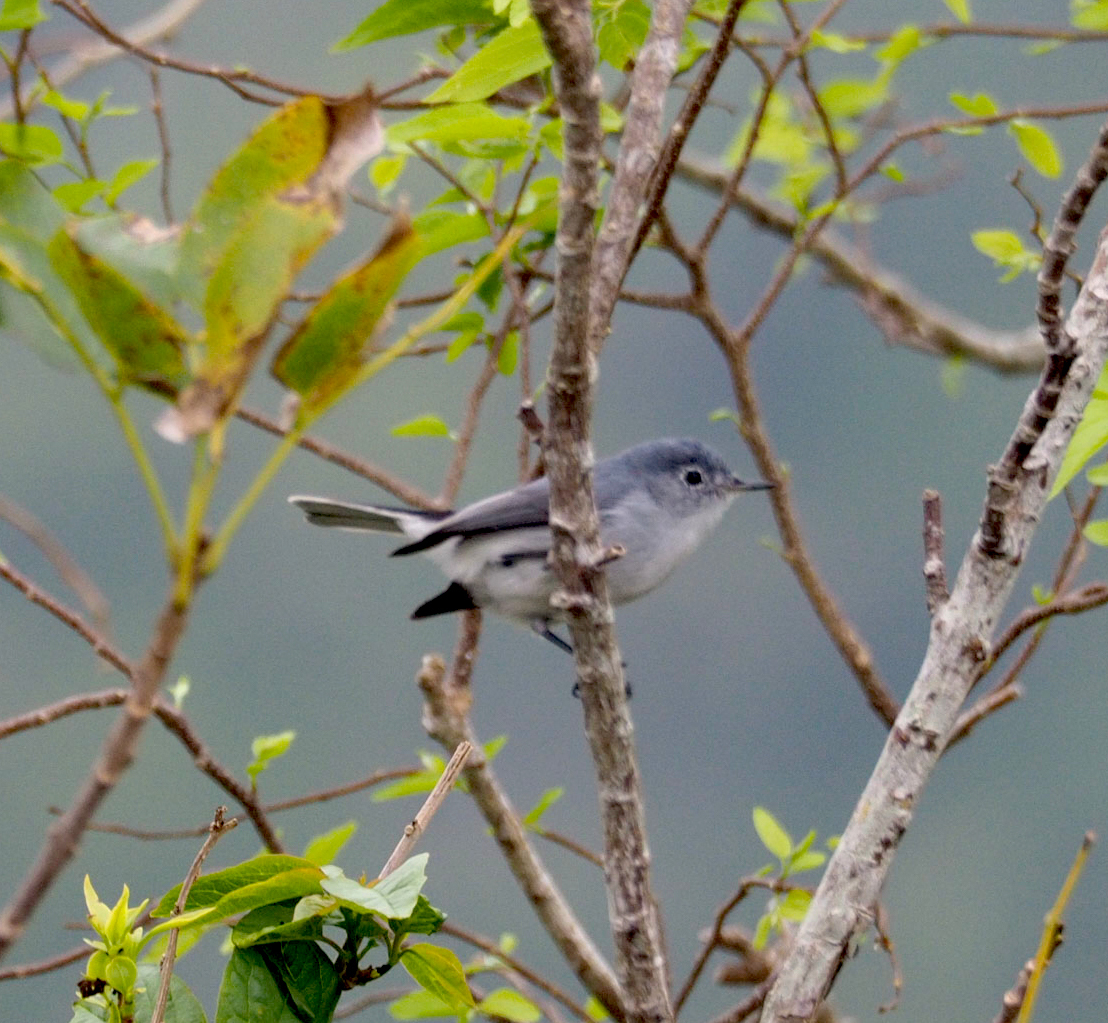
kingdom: Animalia
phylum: Chordata
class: Aves
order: Passeriformes
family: Polioptilidae
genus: Polioptila
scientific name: Polioptila caerulea
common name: Blue-gray gnatcatcher
